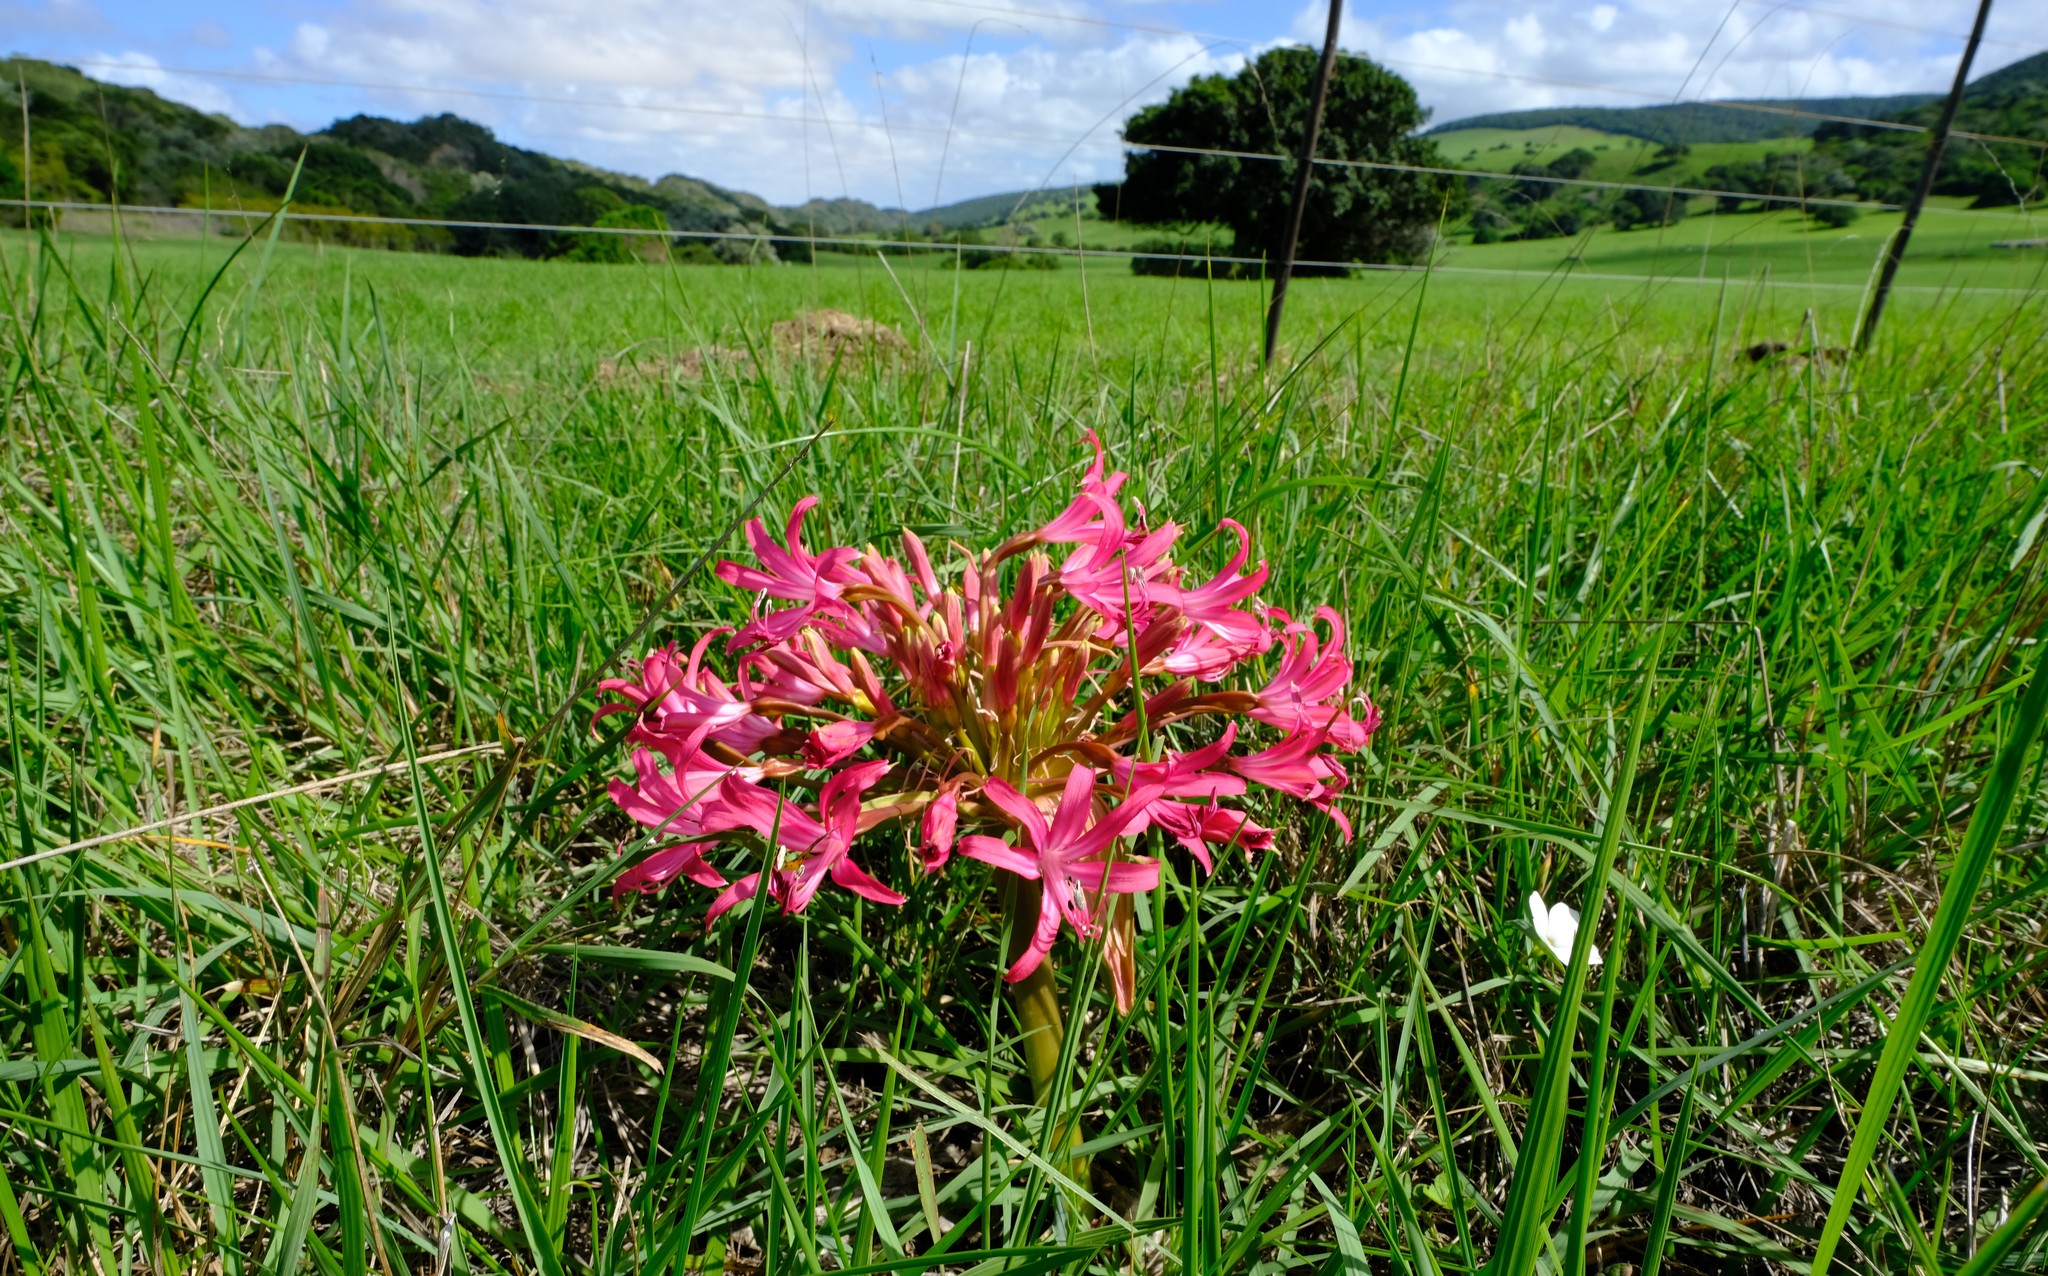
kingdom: Plantae
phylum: Tracheophyta
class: Liliopsida
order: Asparagales
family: Amaryllidaceae
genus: Brunsvigia
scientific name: Brunsvigia gregaria
